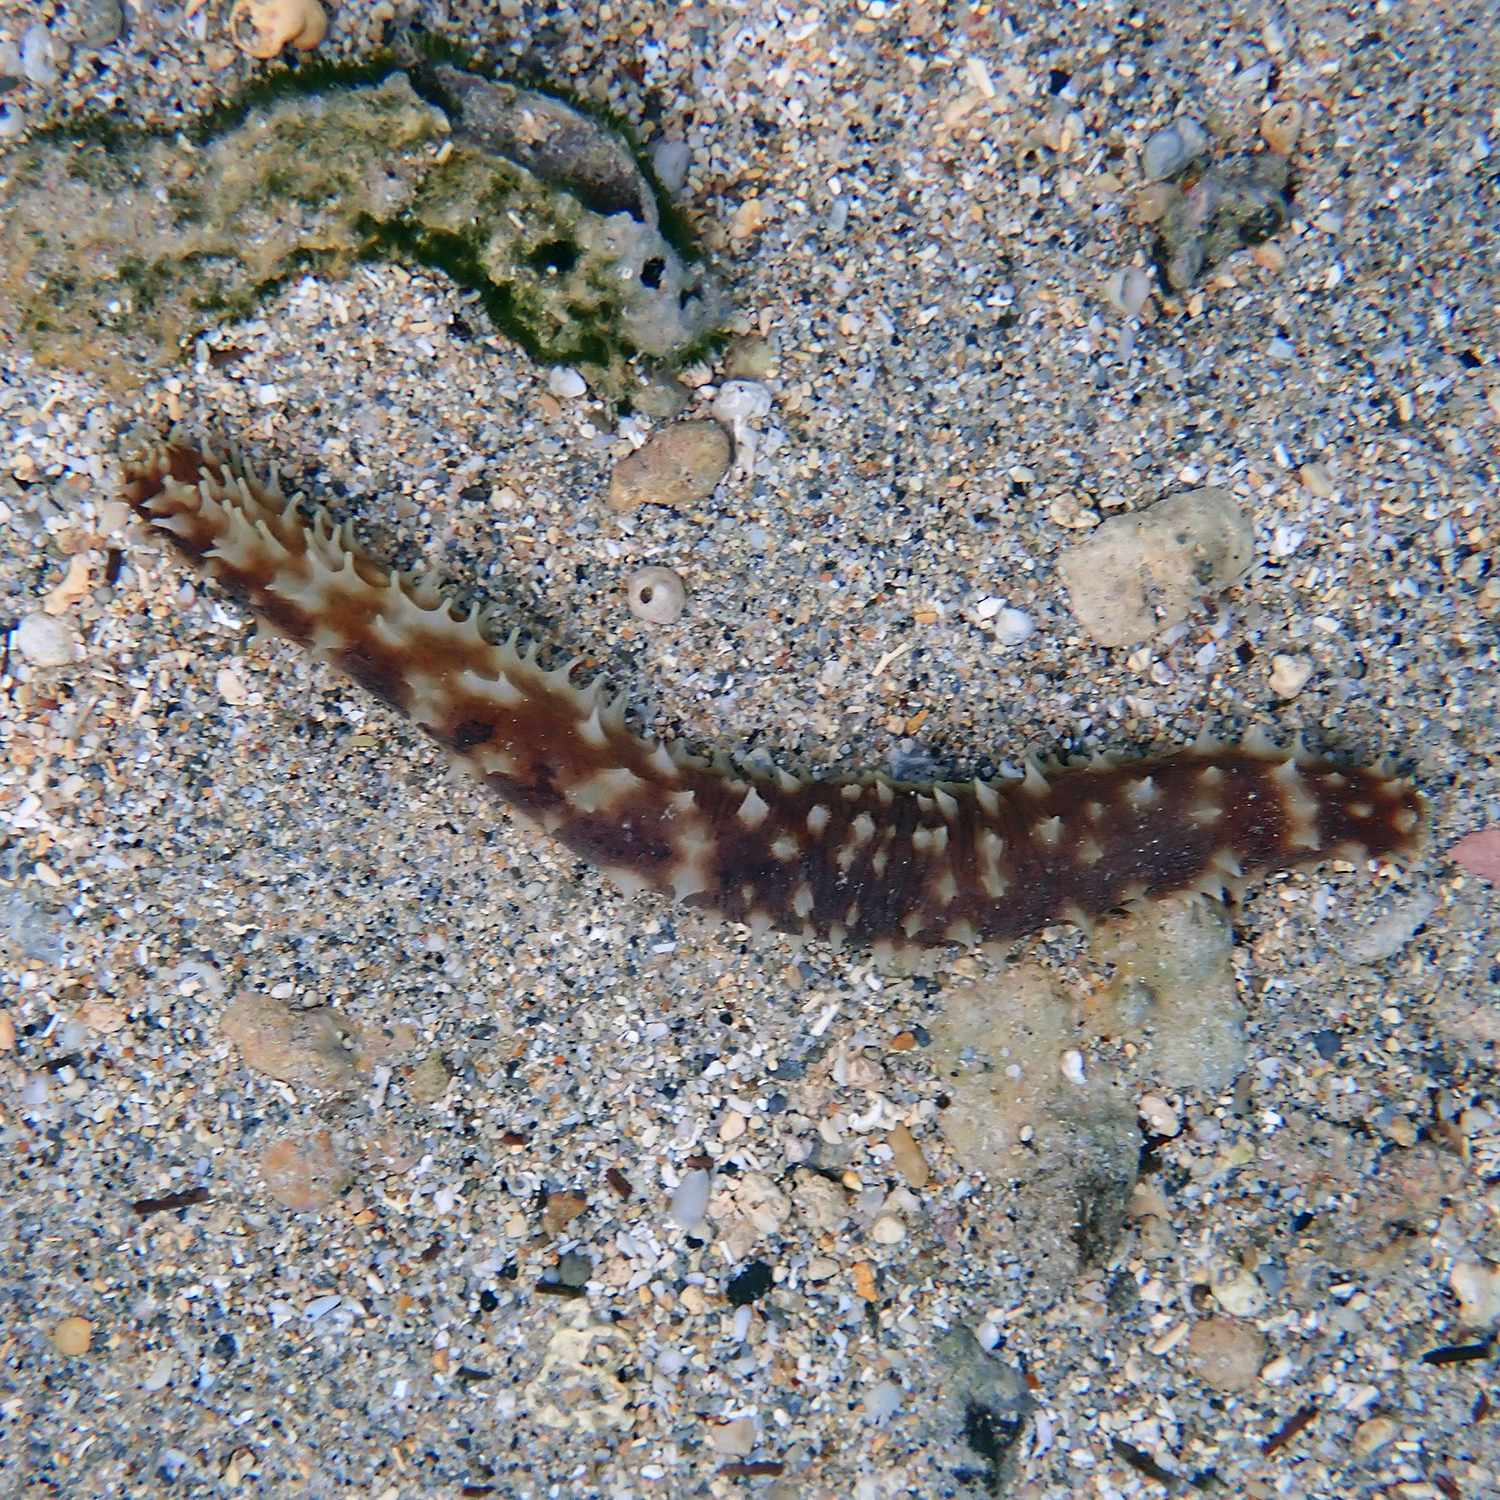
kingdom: Animalia
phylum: Echinodermata
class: Holothuroidea
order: Holothuriida
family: Holothuriidae
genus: Holothuria
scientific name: Holothuria hilla
